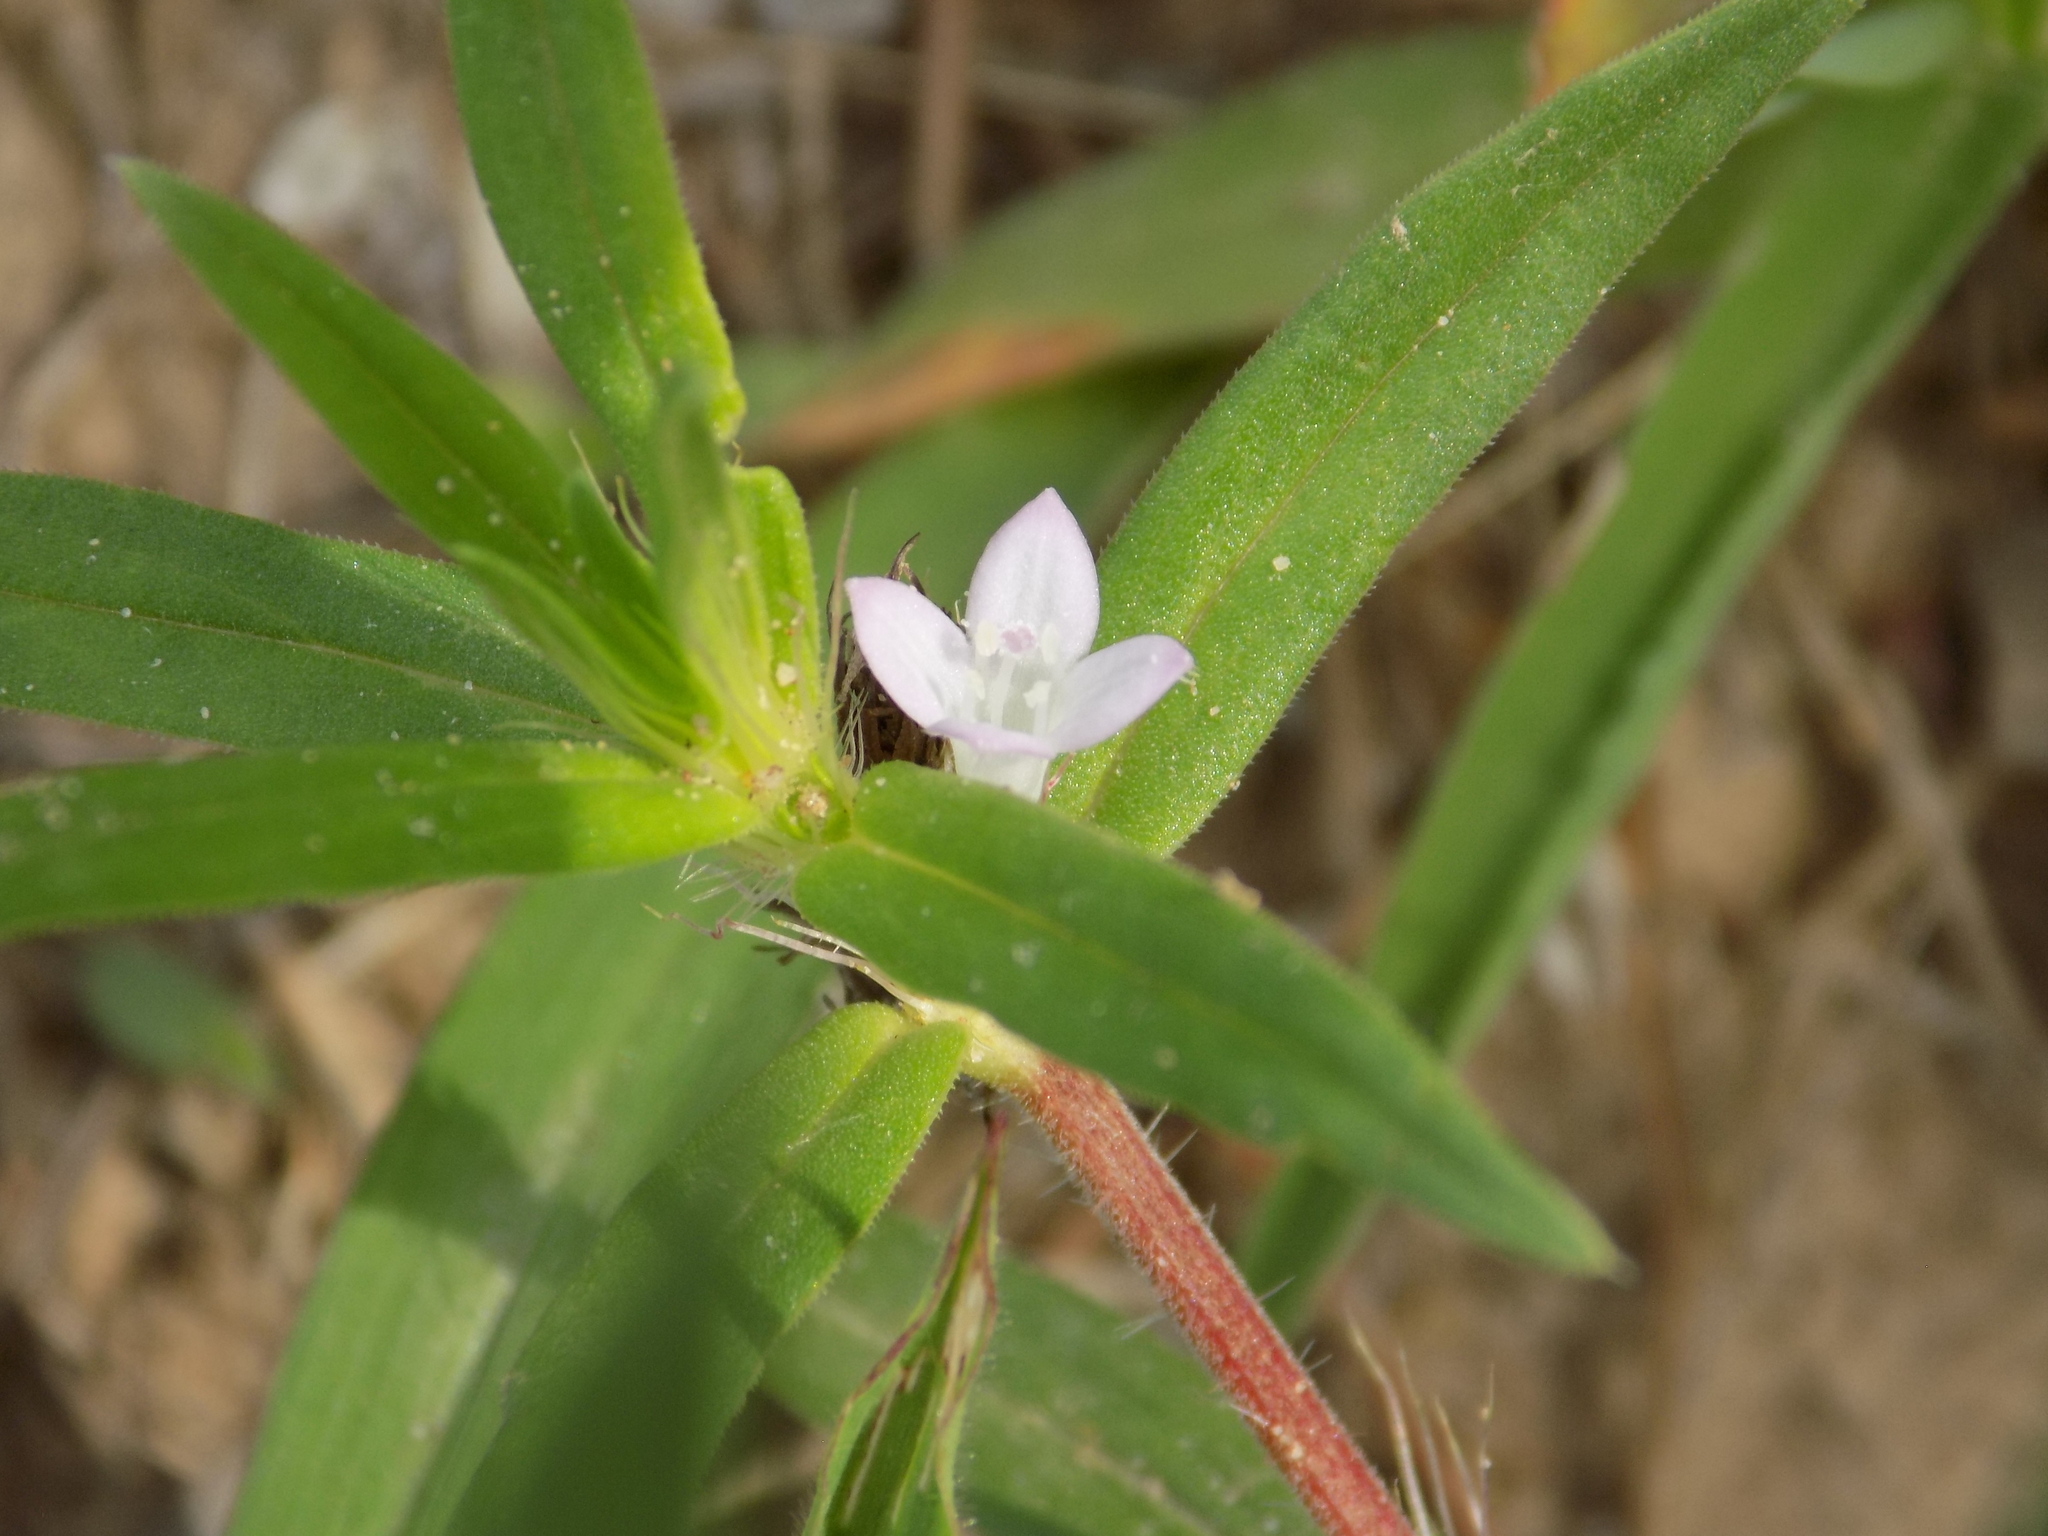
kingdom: Plantae
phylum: Tracheophyta
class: Magnoliopsida
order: Gentianales
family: Rubiaceae
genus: Hexasepalum
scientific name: Hexasepalum teres
